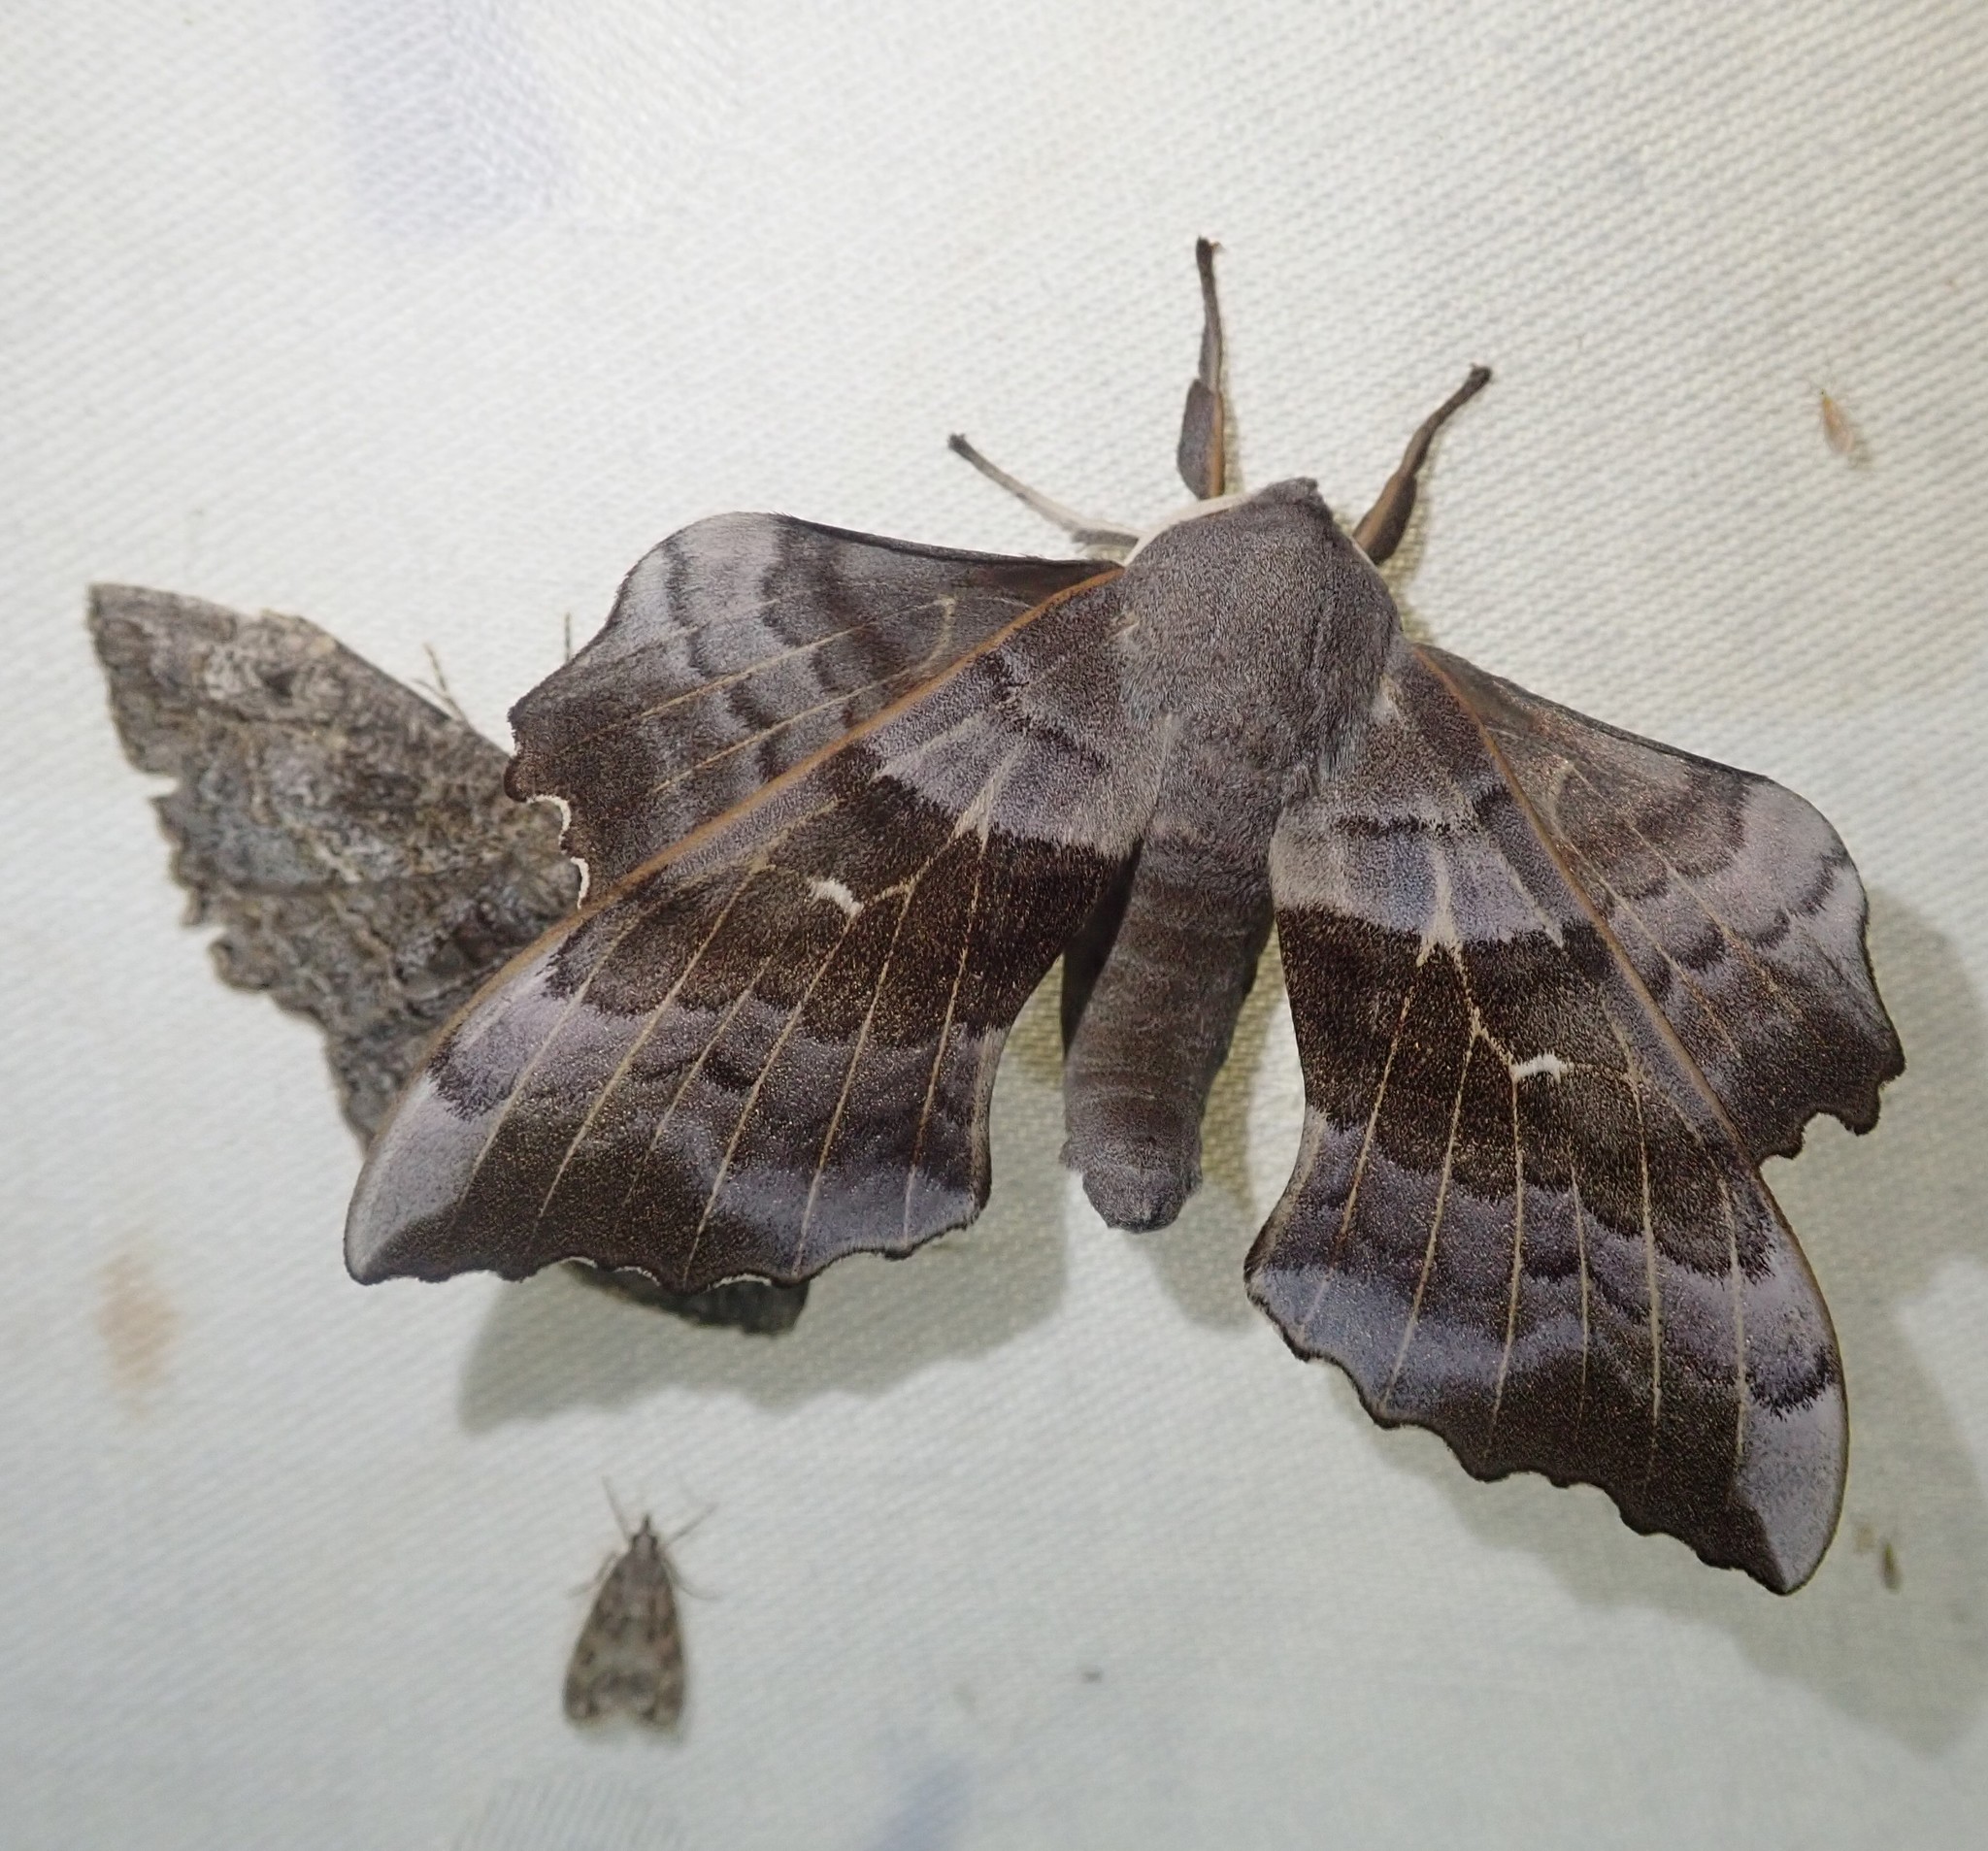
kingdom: Animalia
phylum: Arthropoda
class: Insecta
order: Lepidoptera
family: Sphingidae
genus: Laothoe
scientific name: Laothoe populi
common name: Poplar hawk-moth
